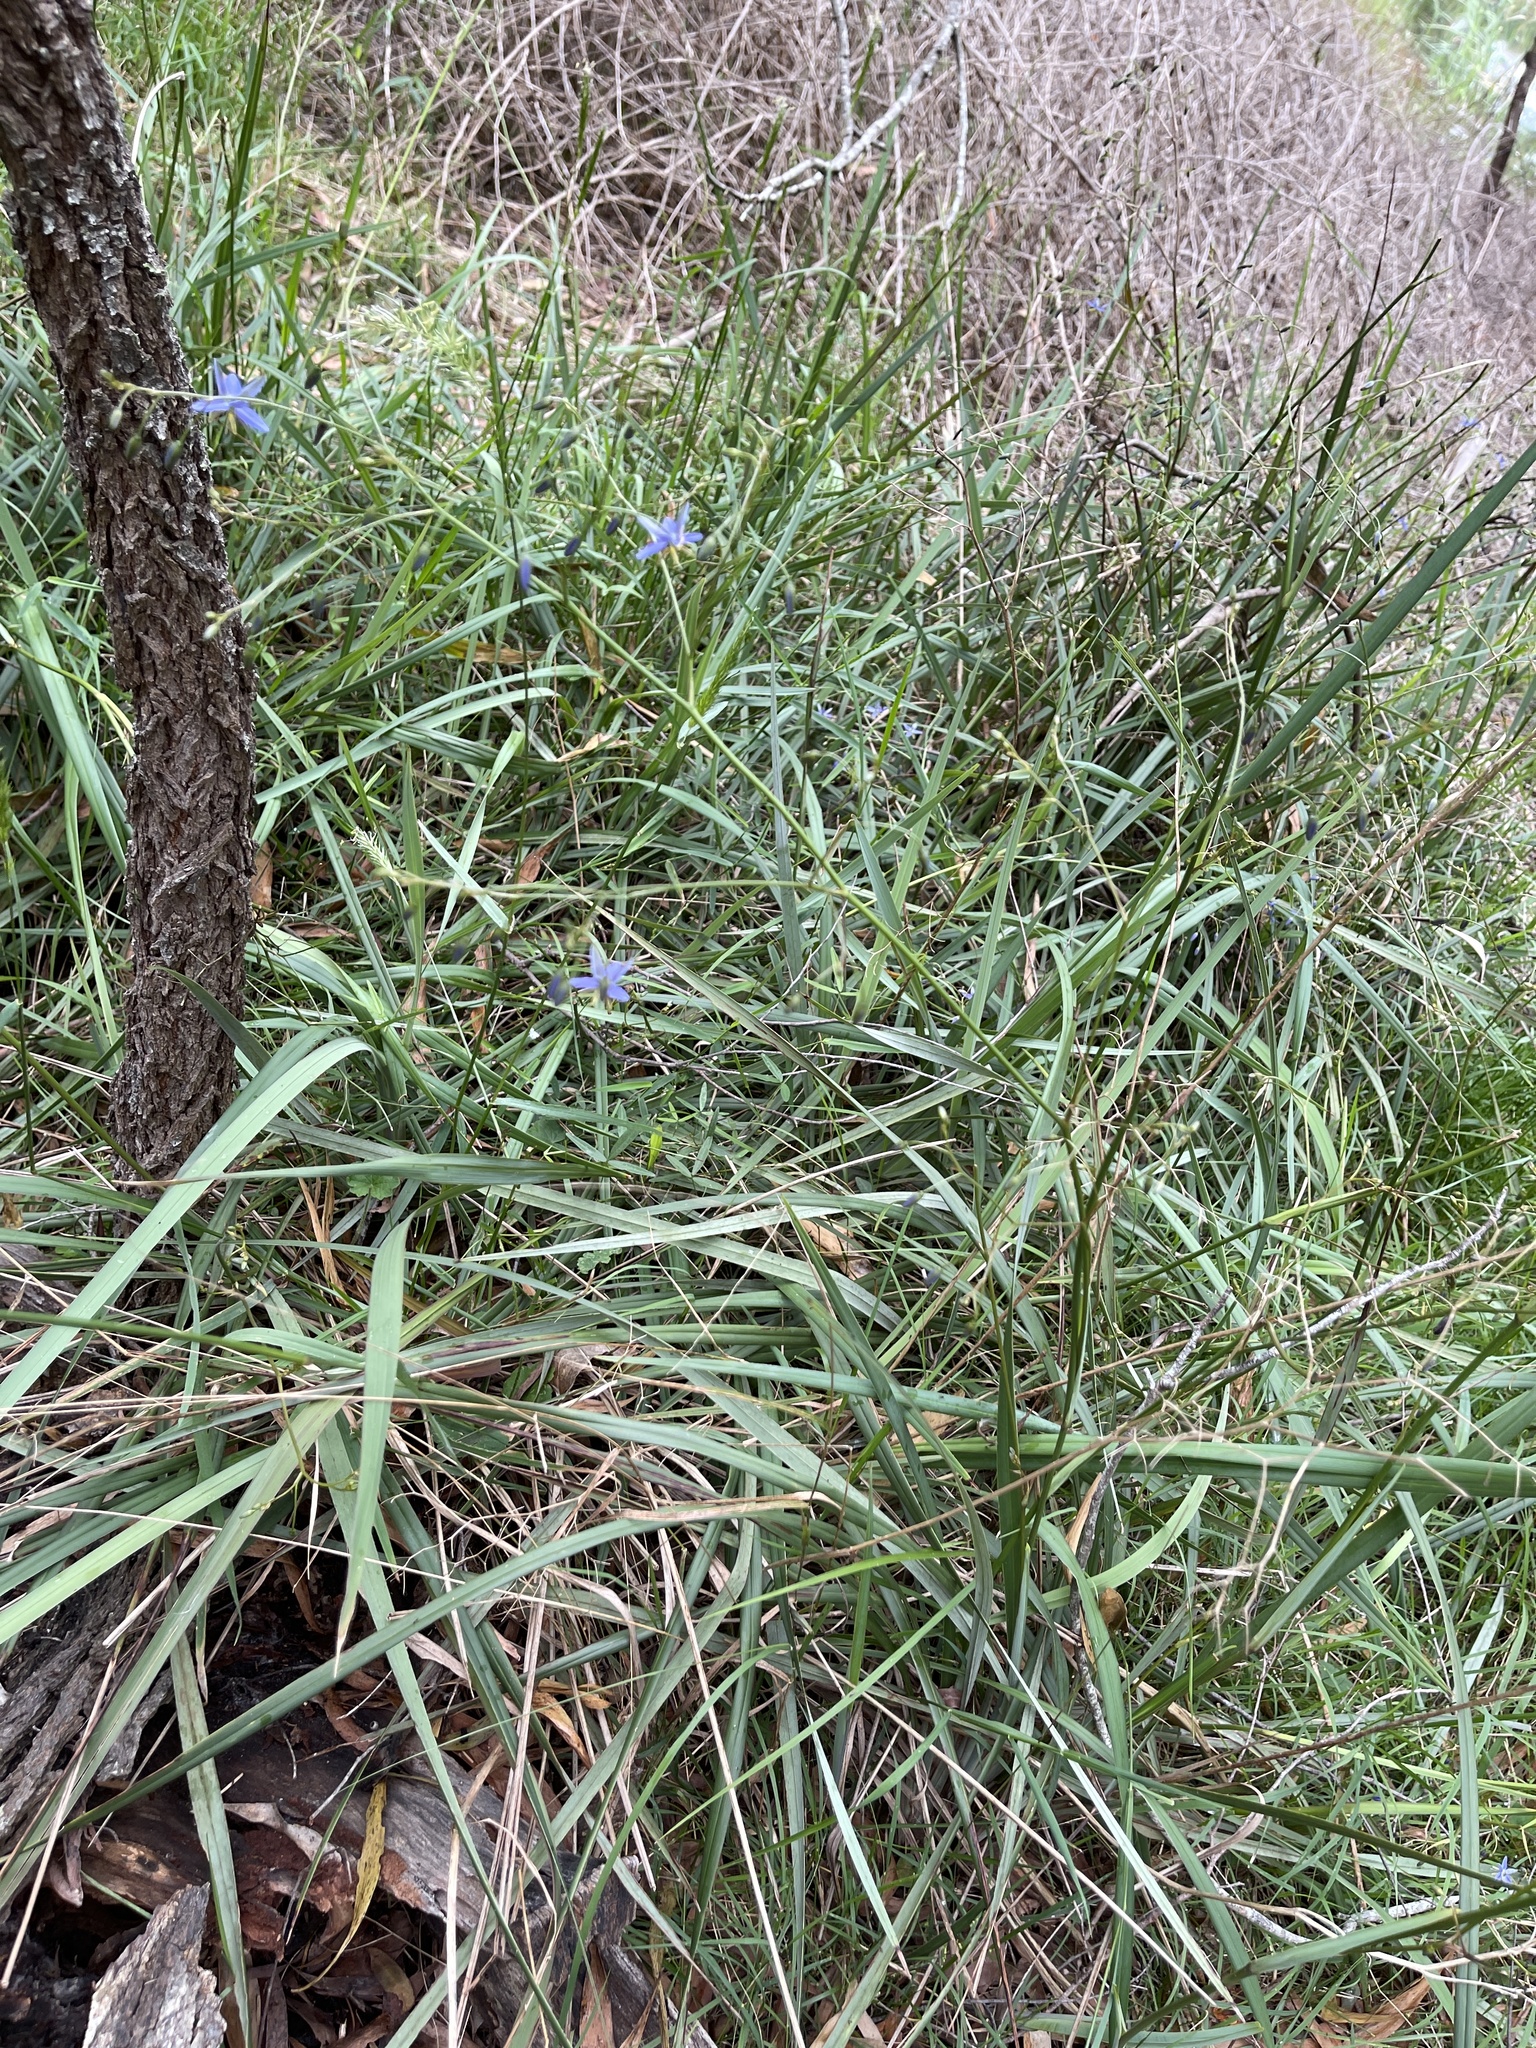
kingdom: Plantae
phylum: Tracheophyta
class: Liliopsida
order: Asparagales
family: Asphodelaceae
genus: Dianella
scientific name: Dianella revoluta
